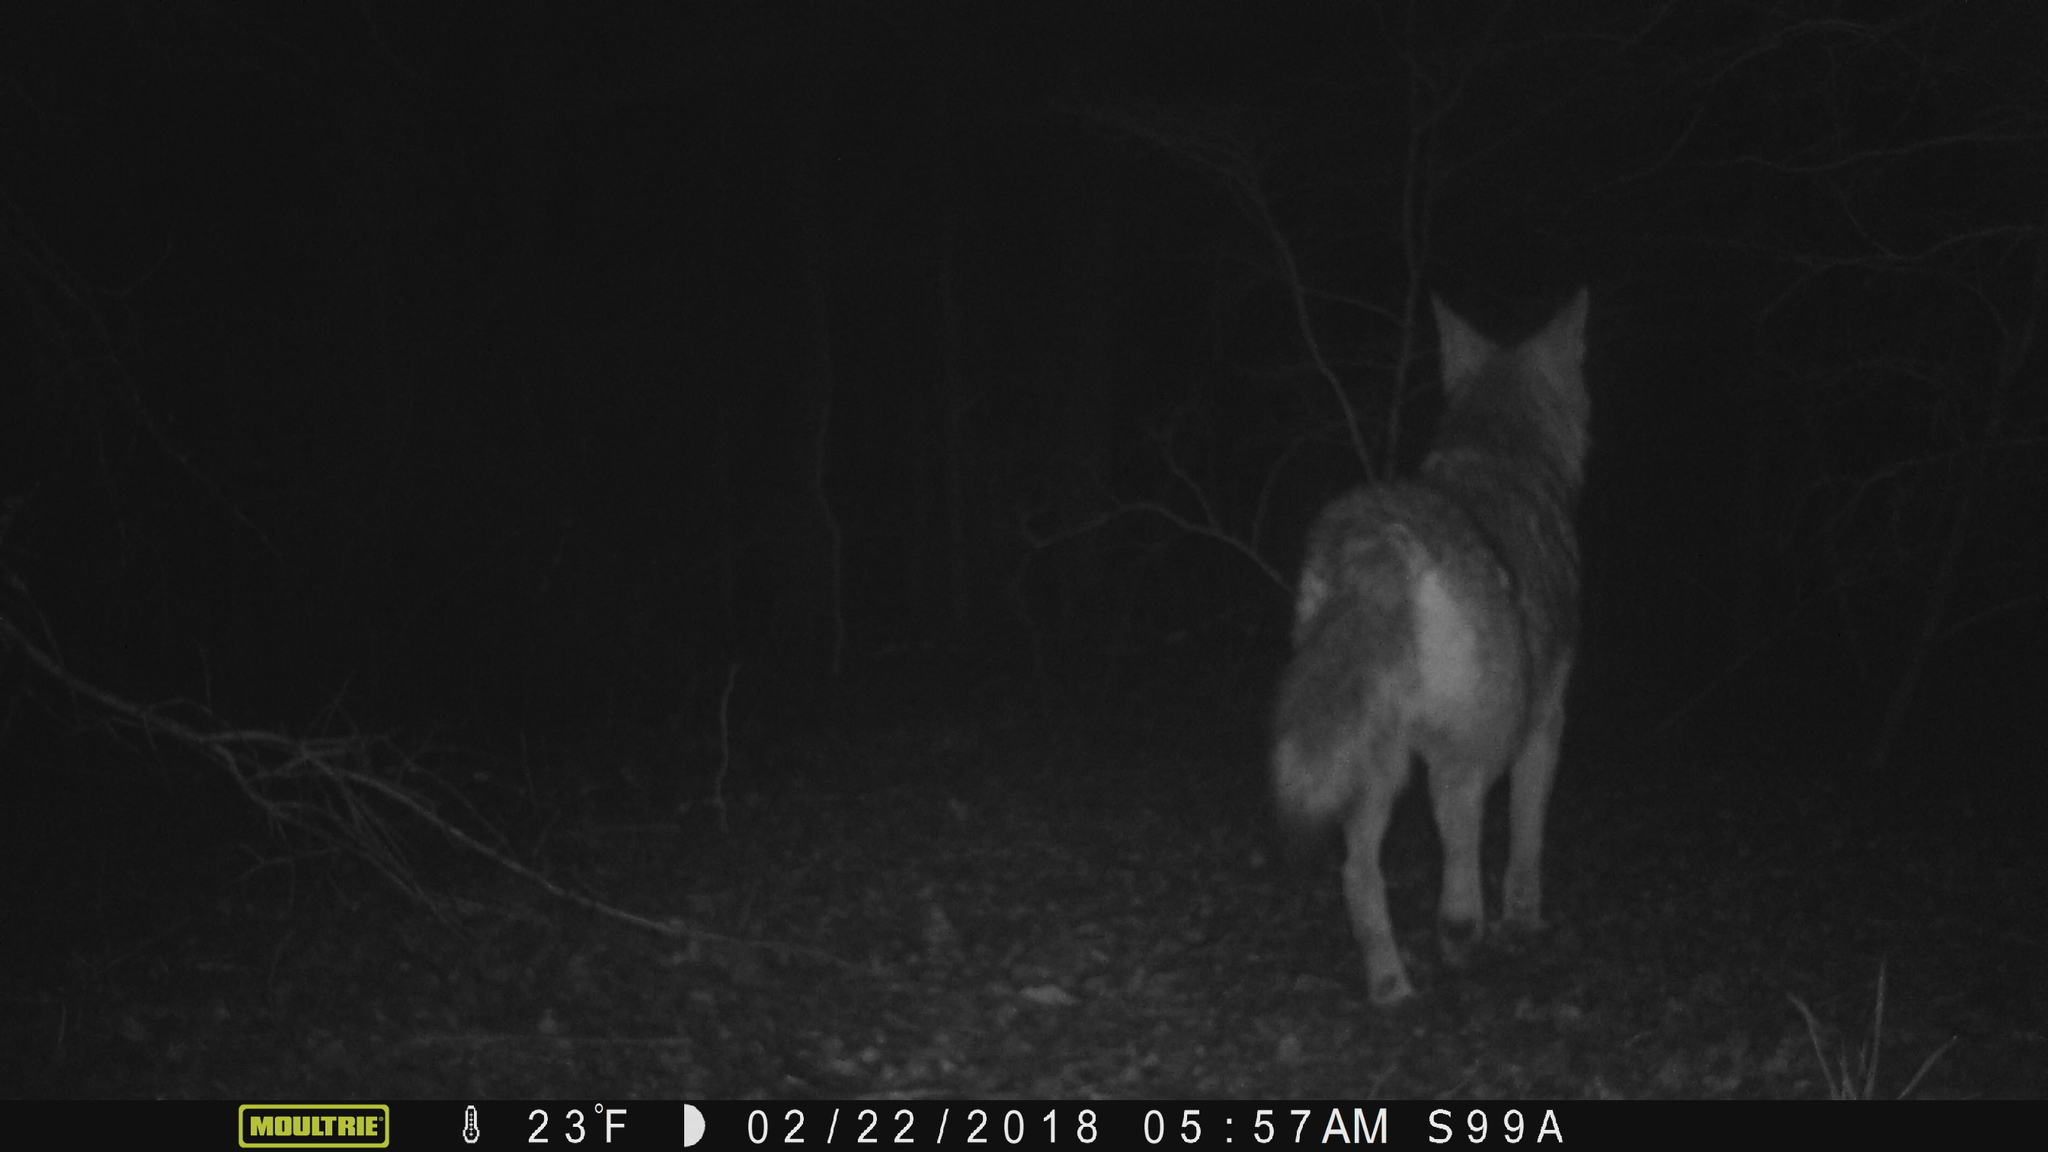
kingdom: Animalia
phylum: Chordata
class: Mammalia
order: Carnivora
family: Canidae
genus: Canis
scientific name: Canis latrans
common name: Coyote
